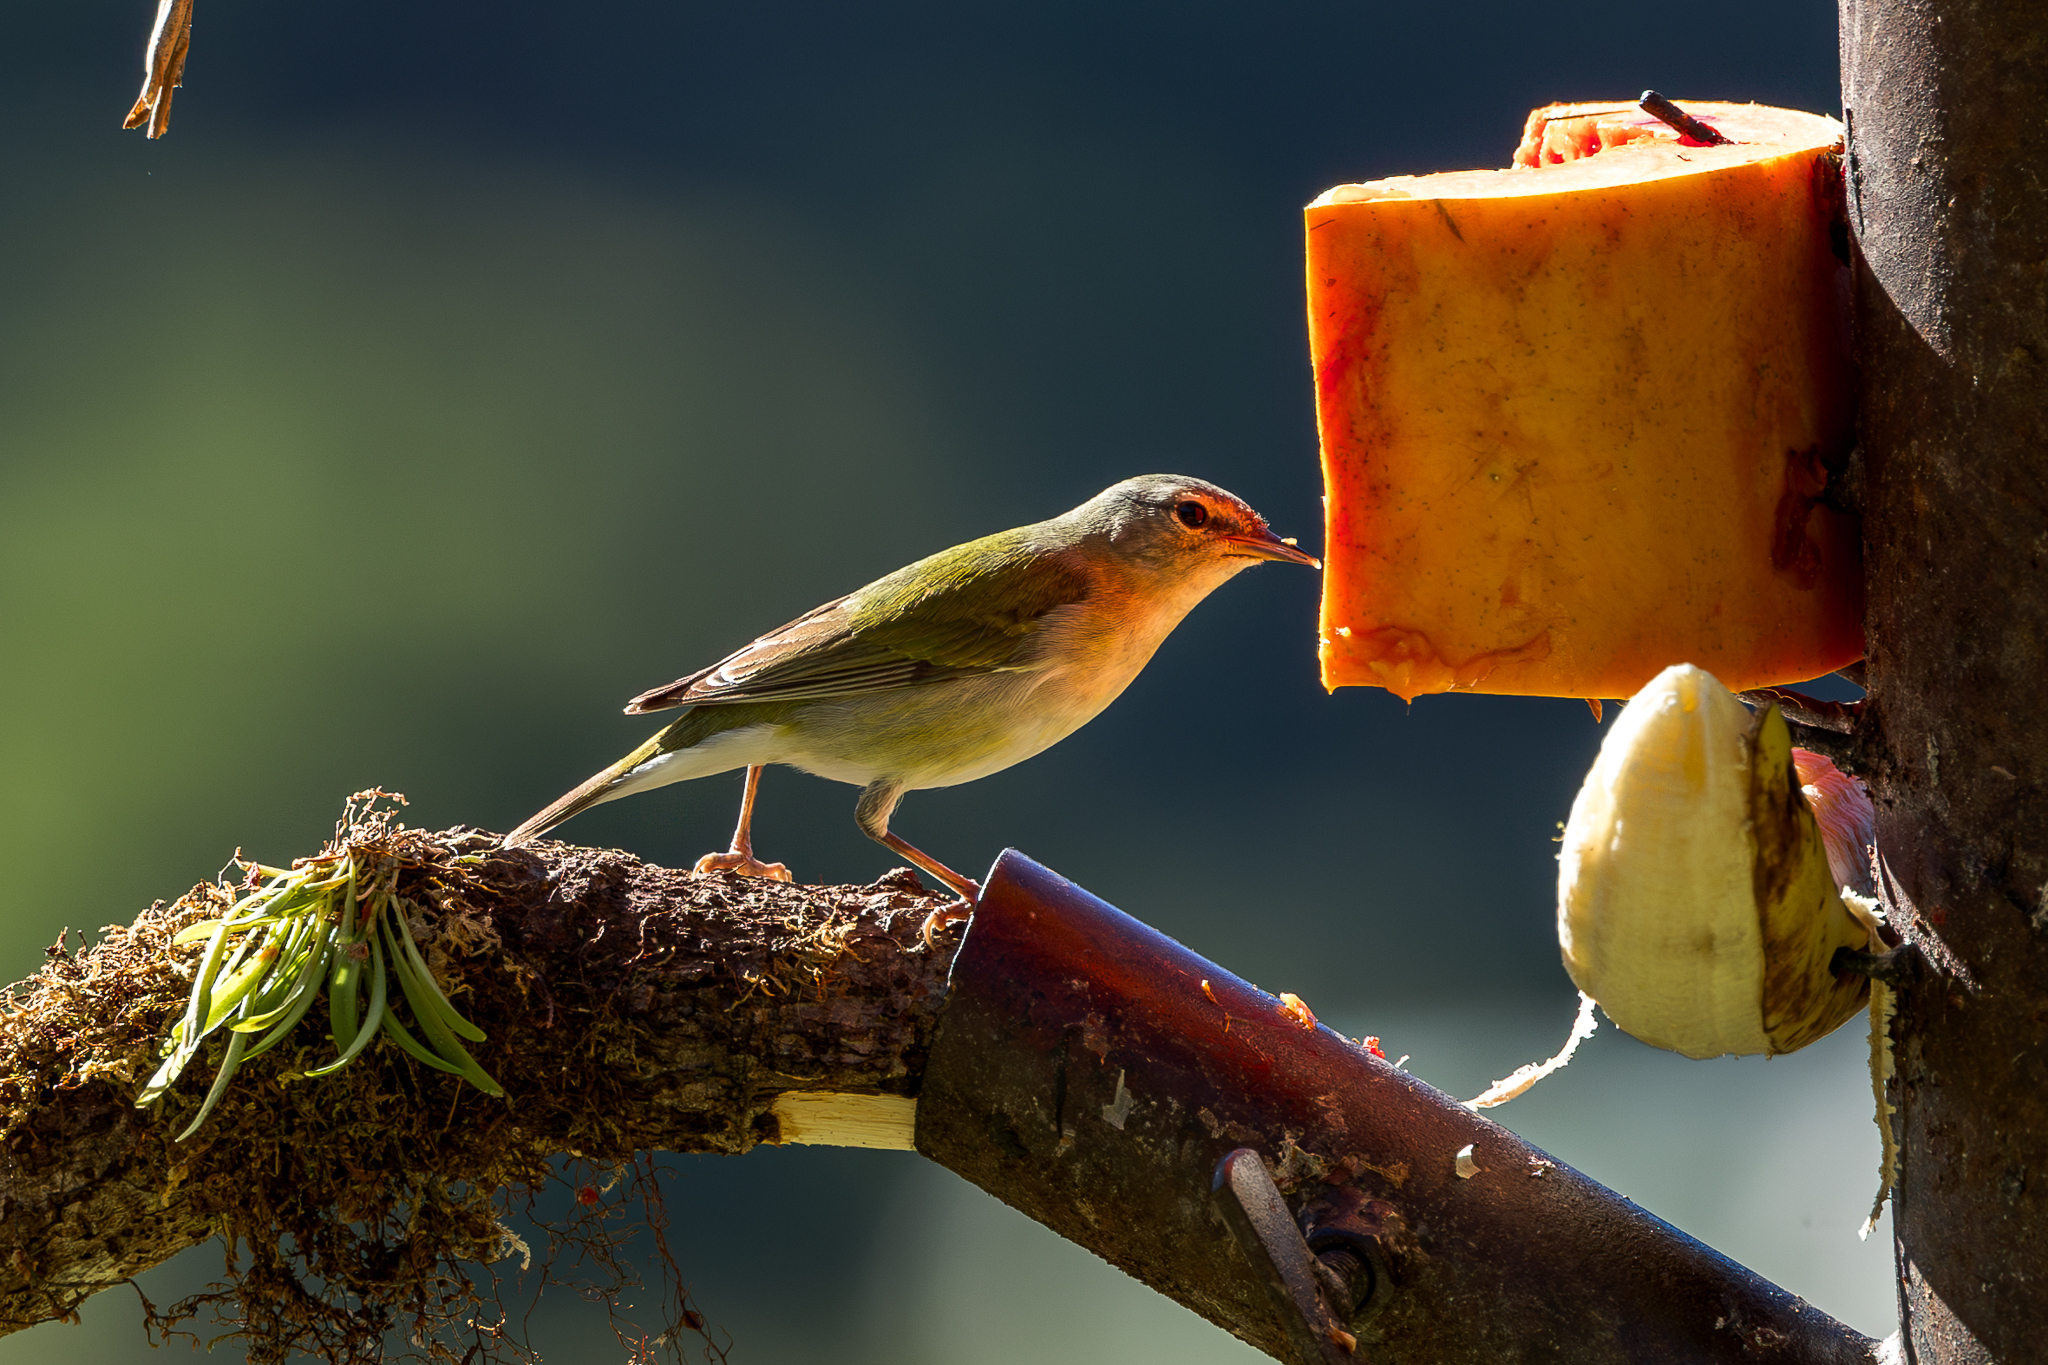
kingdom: Animalia
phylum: Chordata
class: Aves
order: Passeriformes
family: Parulidae
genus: Leiothlypis
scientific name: Leiothlypis peregrina
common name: Tennessee warbler
